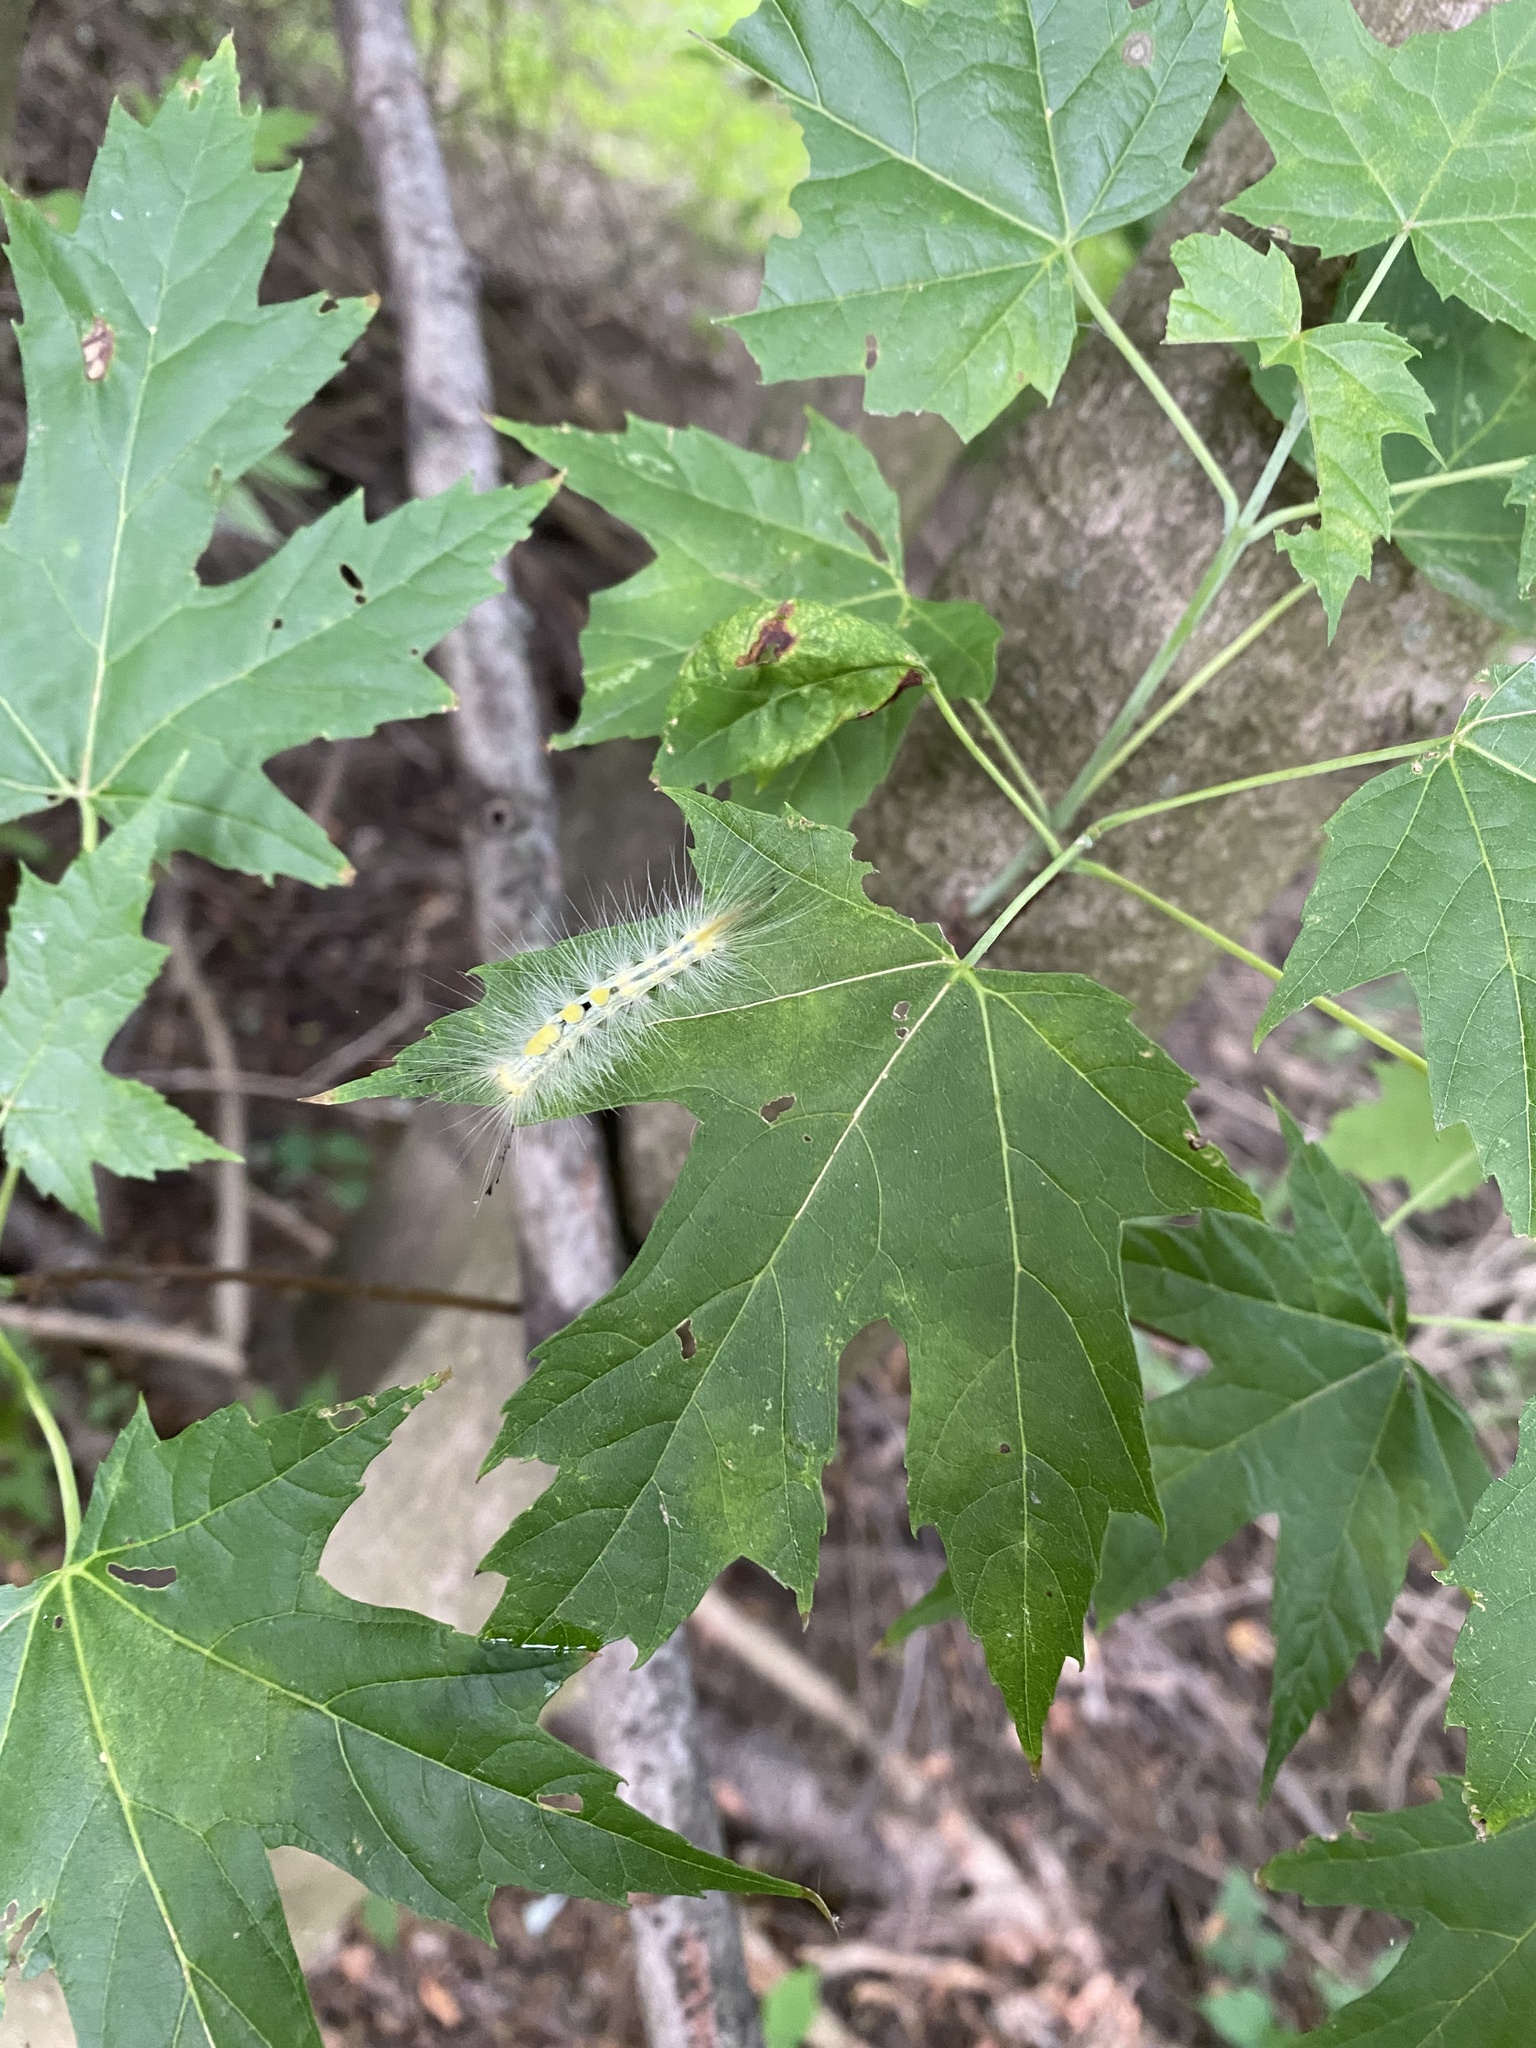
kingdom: Animalia
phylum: Arthropoda
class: Insecta
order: Lepidoptera
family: Erebidae
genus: Orgyia
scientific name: Orgyia definita
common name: Definite tussock moth
